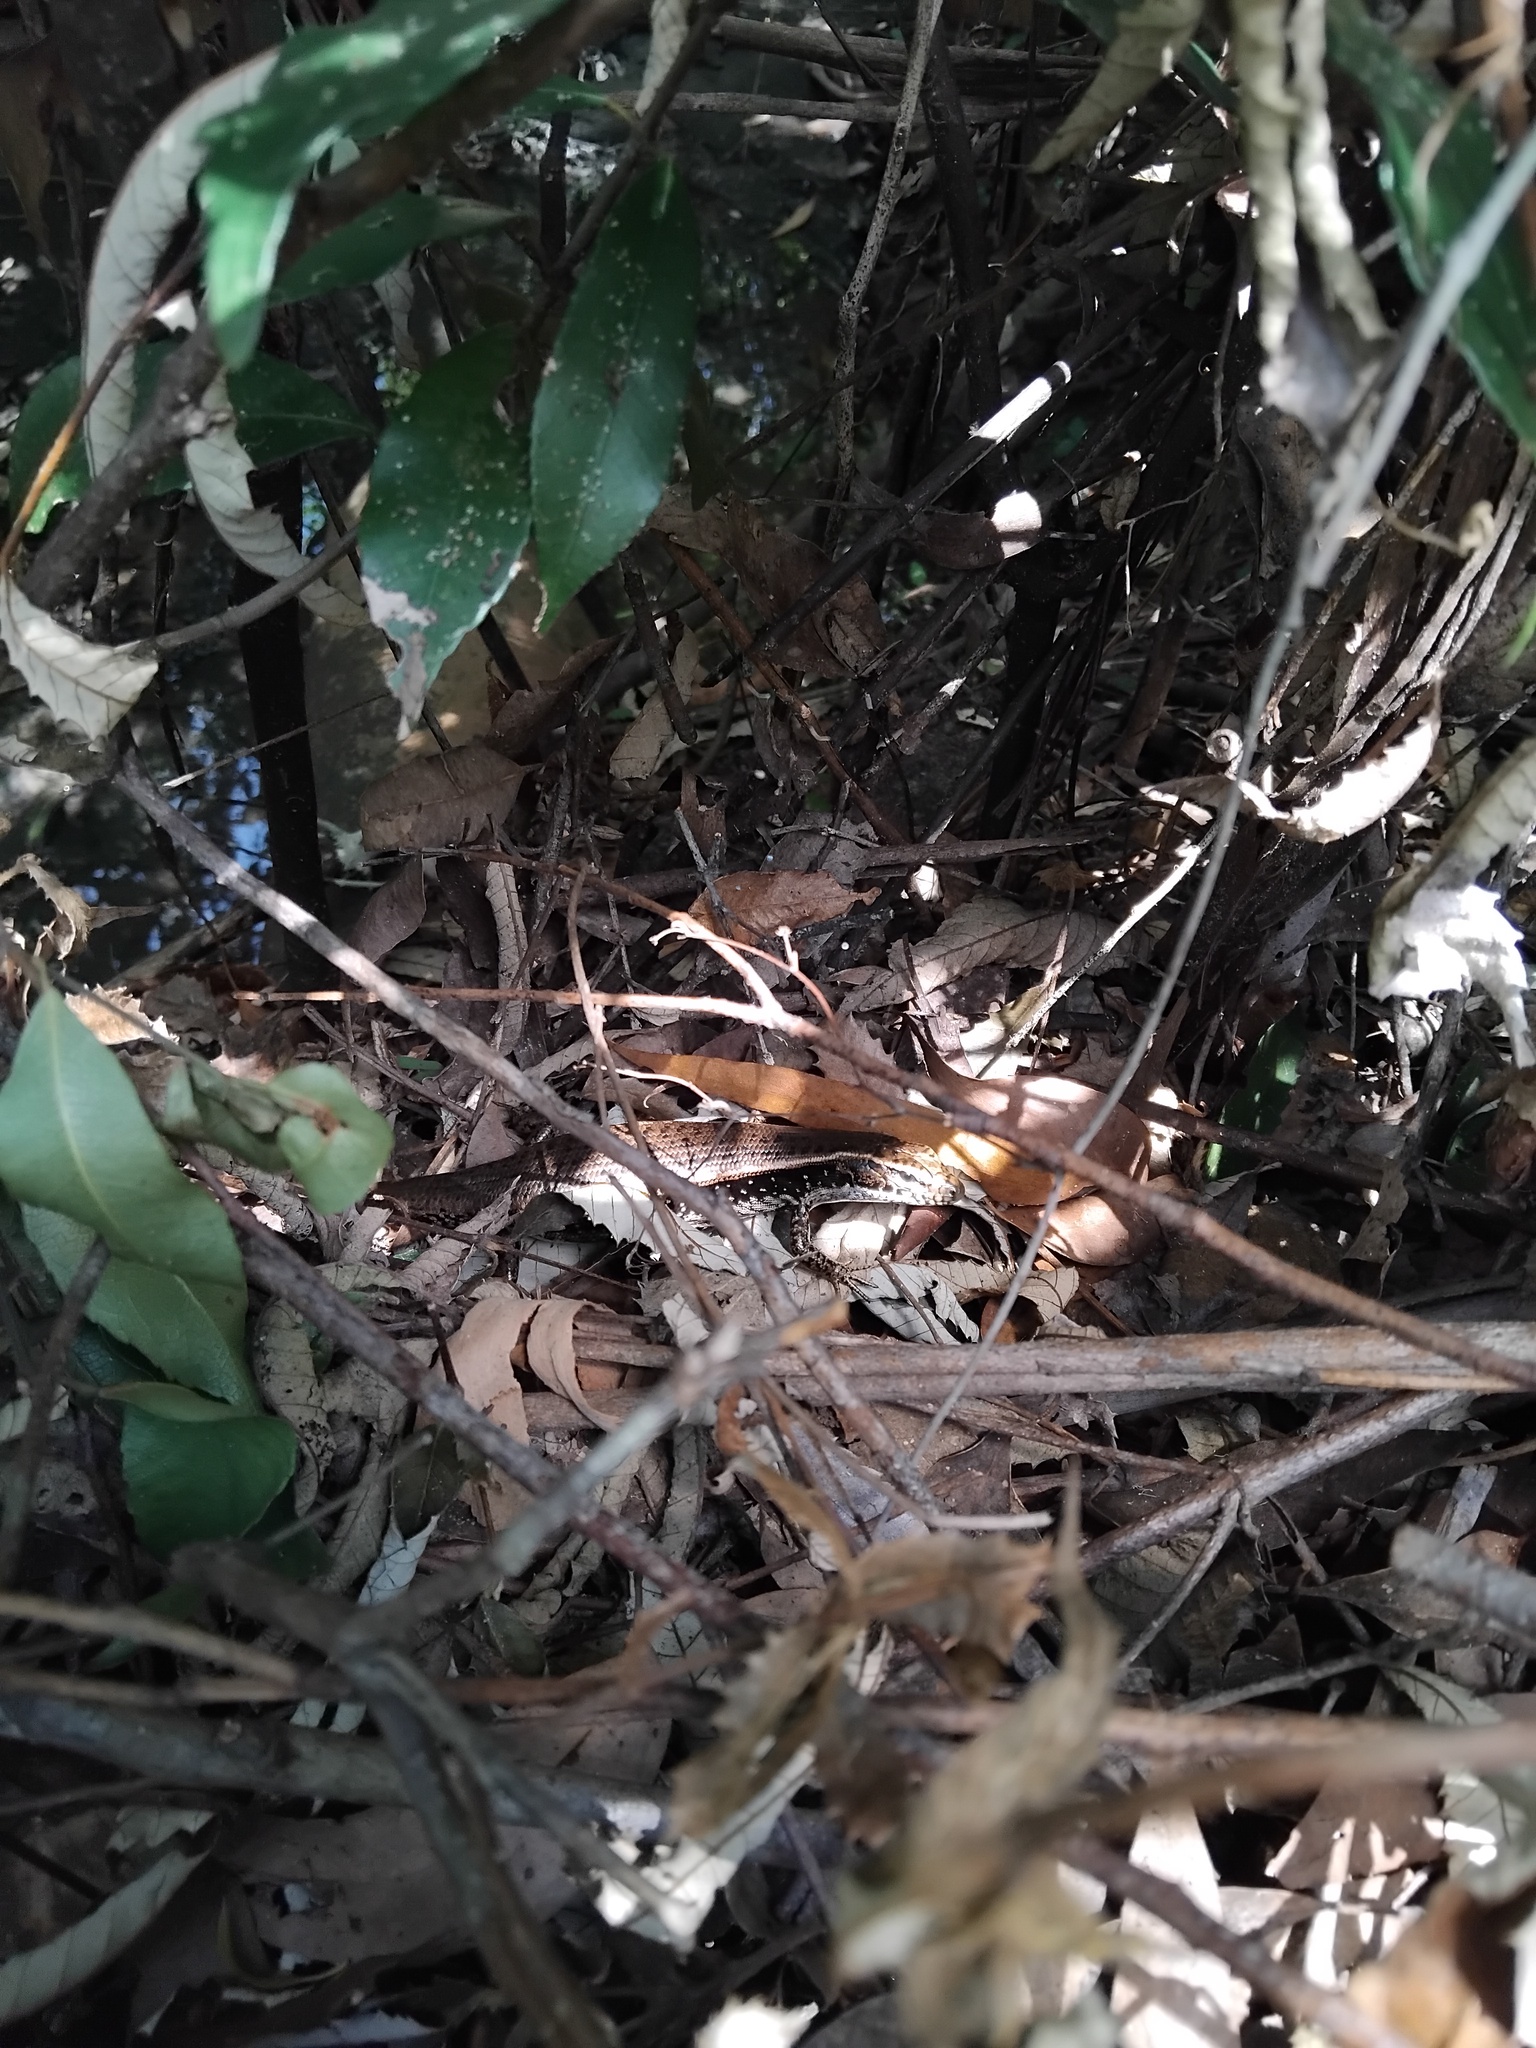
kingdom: Animalia
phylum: Chordata
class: Squamata
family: Scincidae
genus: Eulamprus
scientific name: Eulamprus quoyii
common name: Eastern water skink
